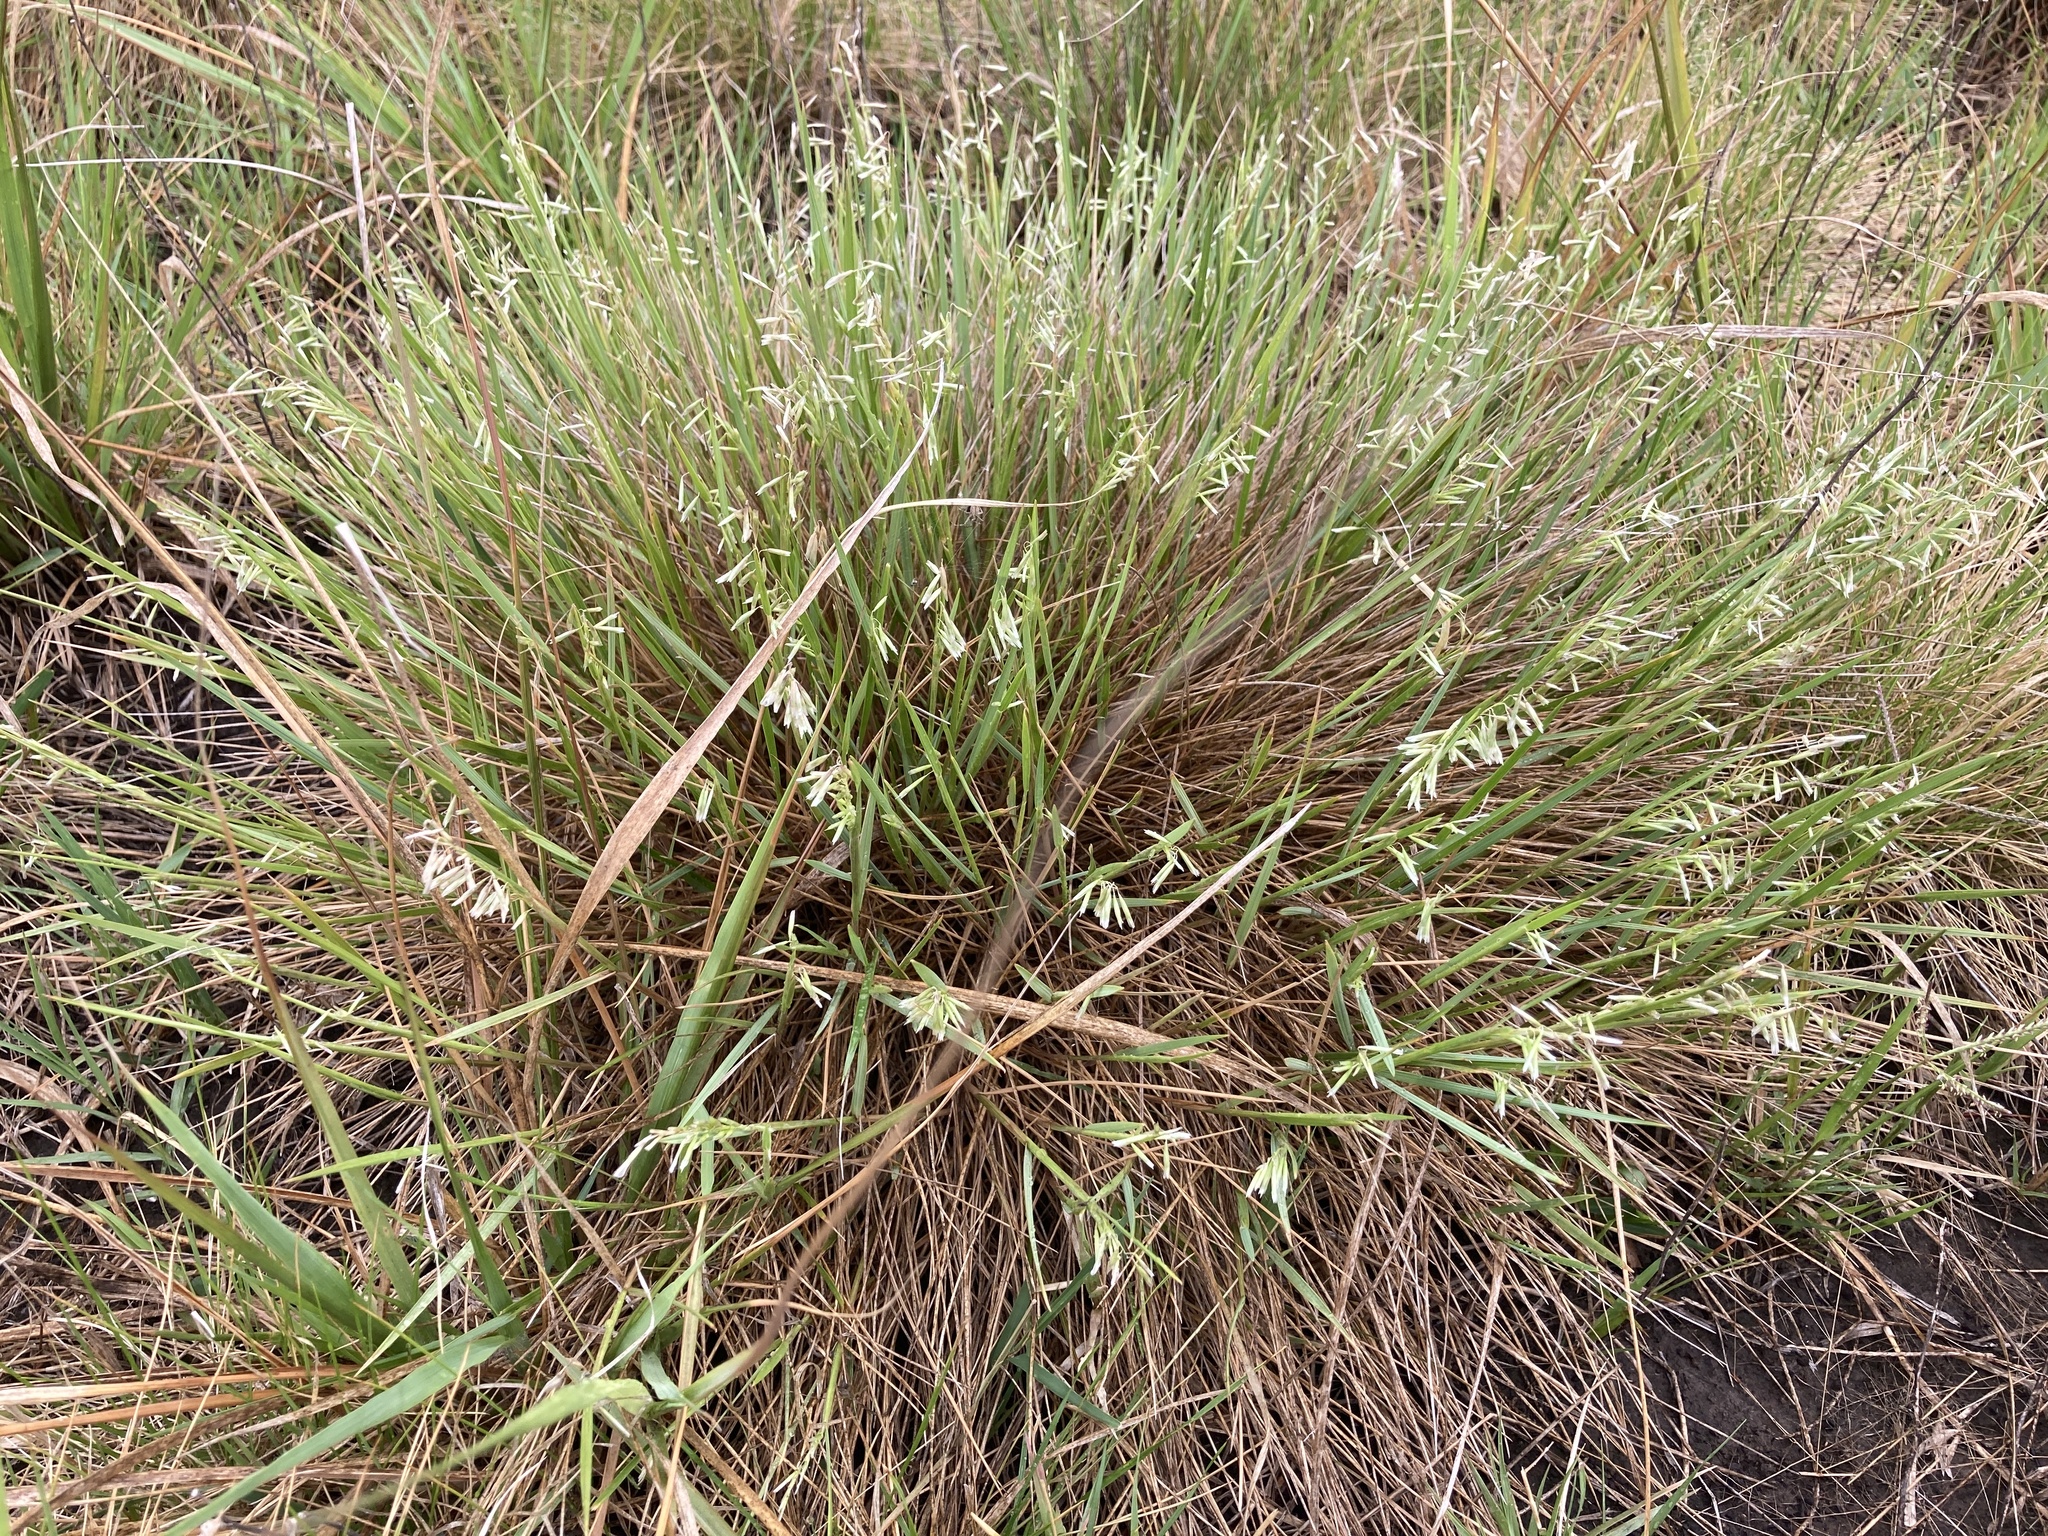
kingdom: Plantae
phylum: Tracheophyta
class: Liliopsida
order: Poales
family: Poaceae
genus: Melica
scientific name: Melica macra
